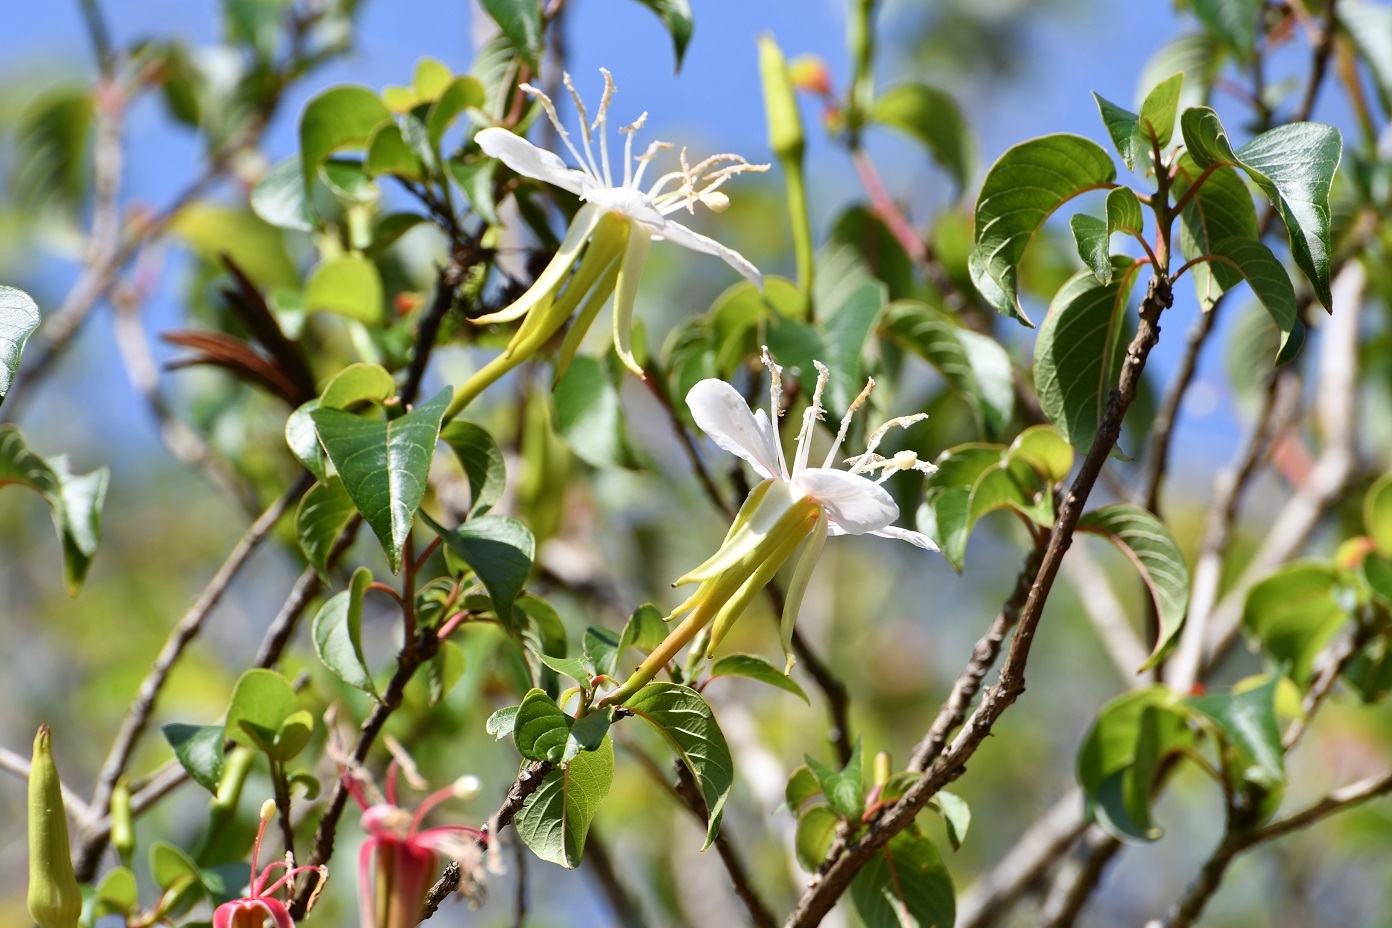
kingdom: Plantae
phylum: Tracheophyta
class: Magnoliopsida
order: Myrtales
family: Onagraceae
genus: Hauya
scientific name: Hauya elegans
